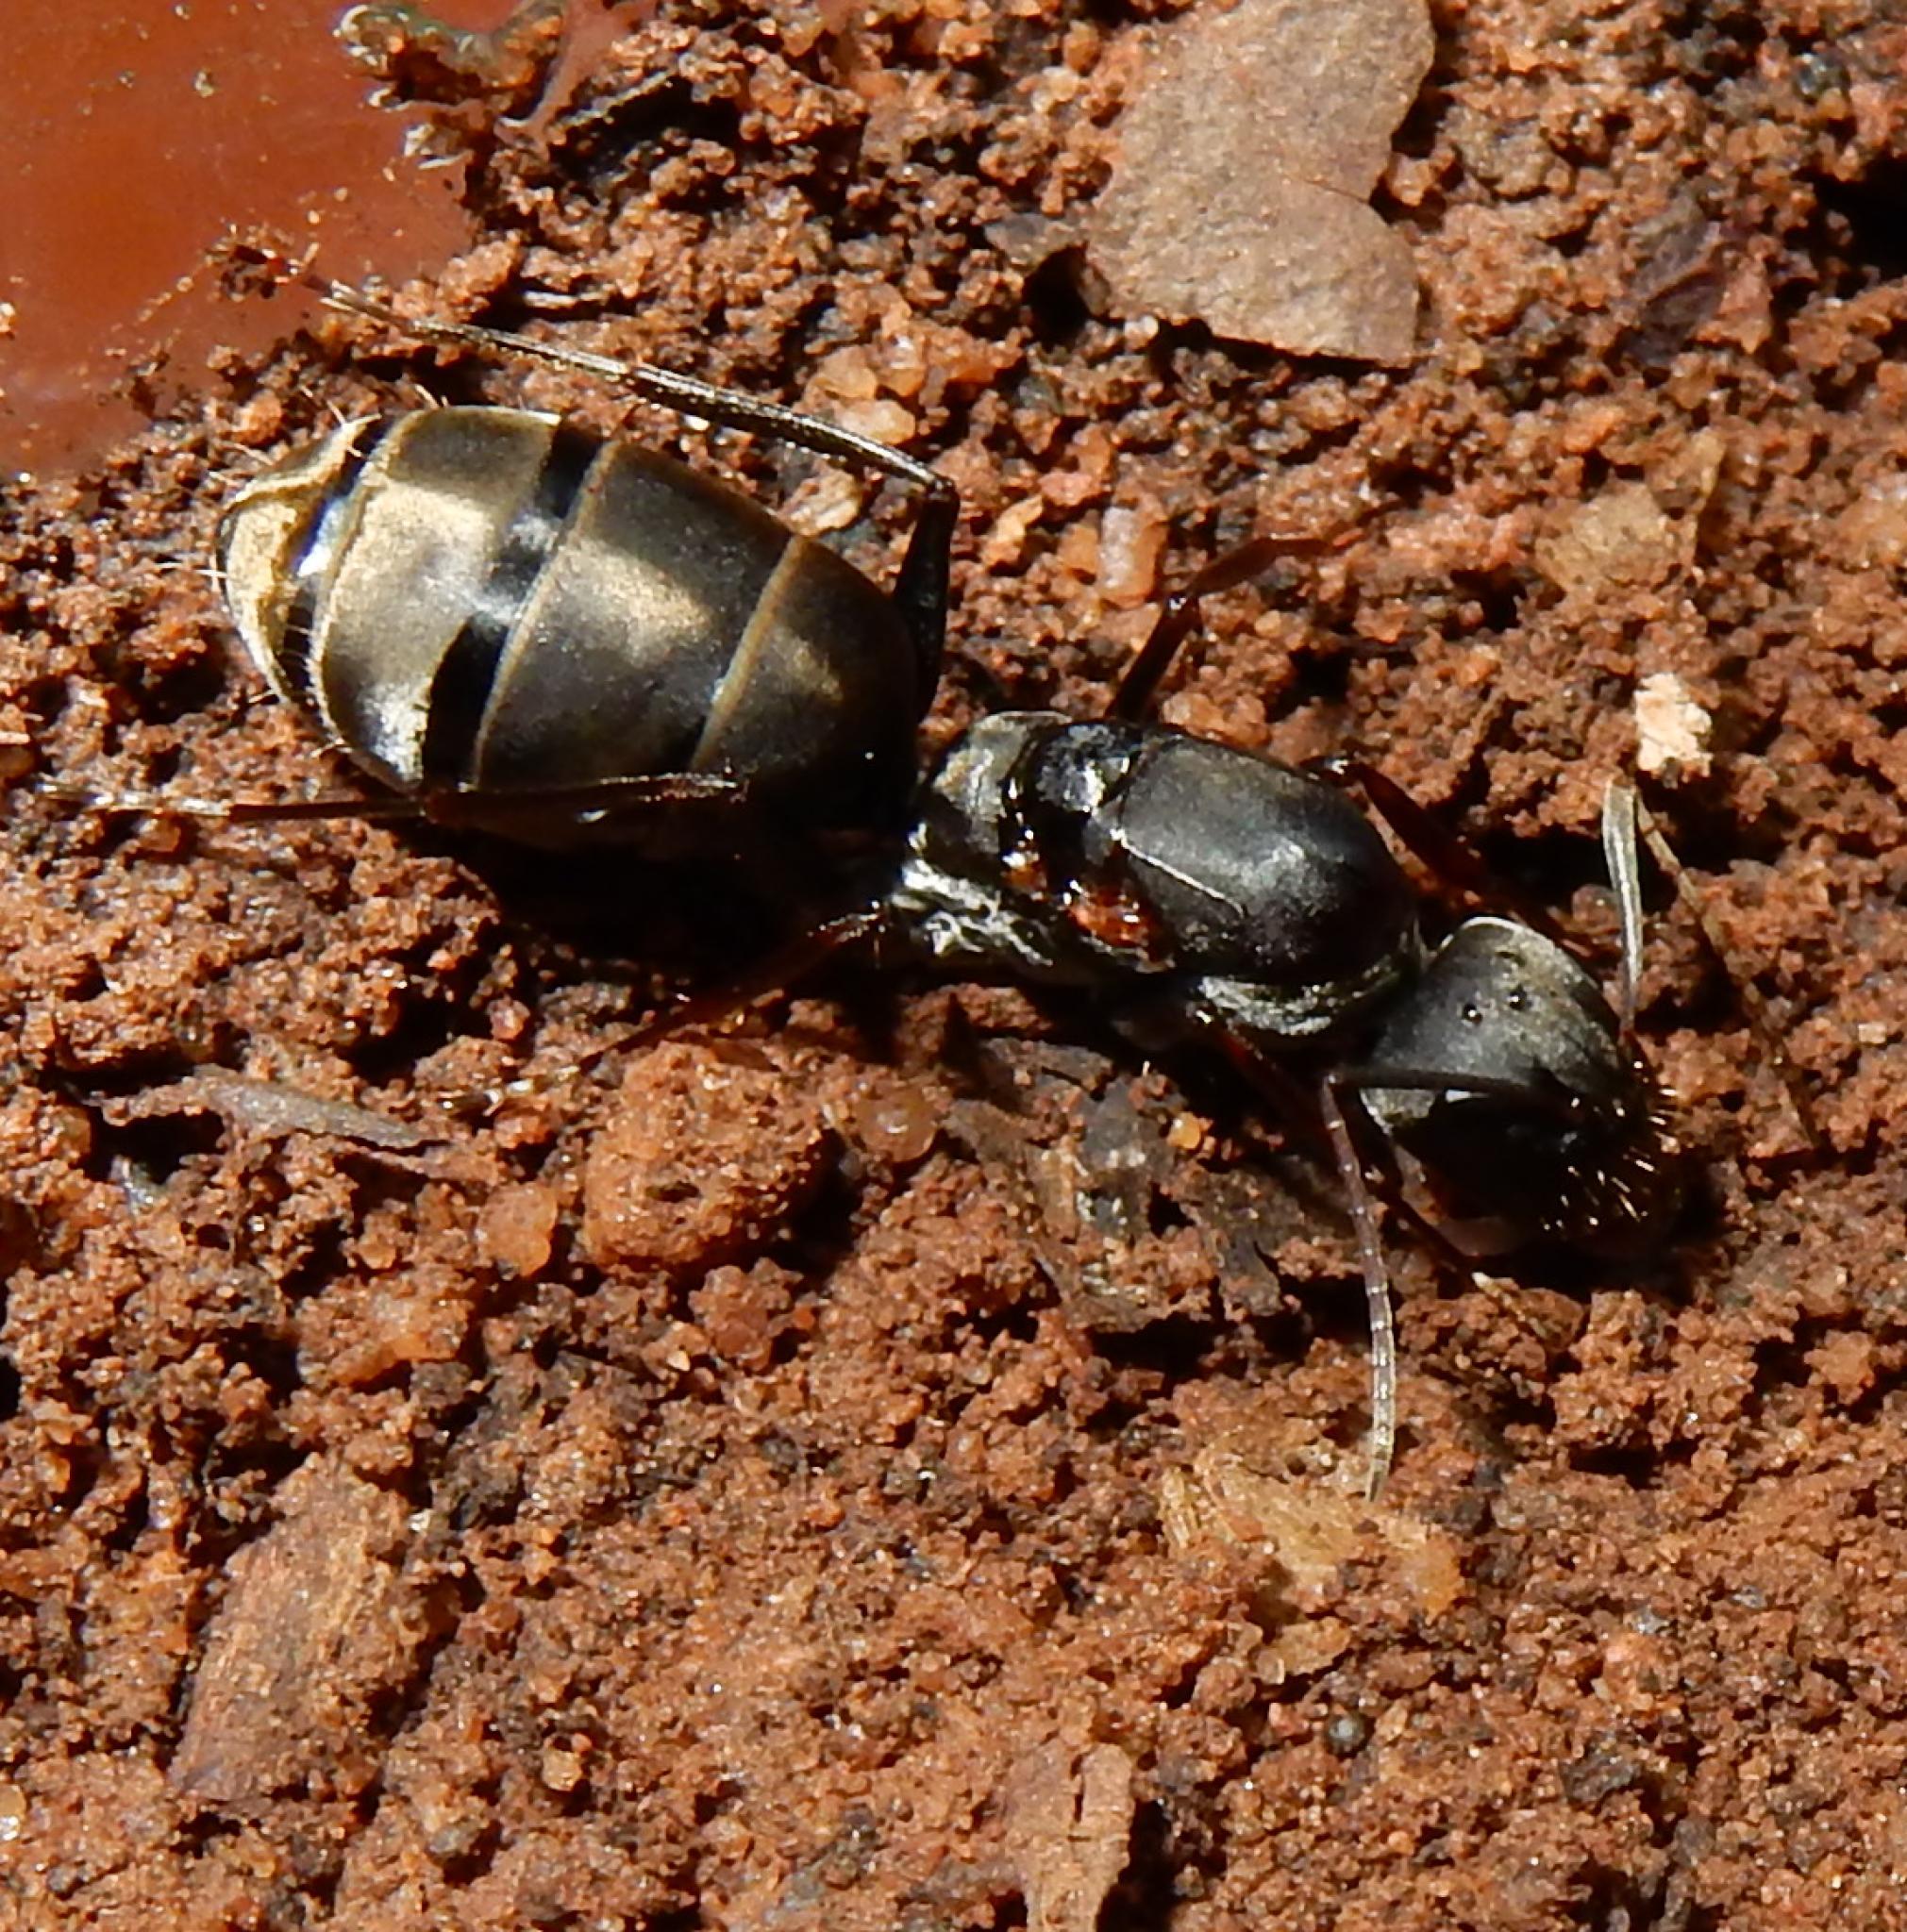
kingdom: Animalia
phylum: Arthropoda
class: Insecta
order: Hymenoptera
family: Formicidae
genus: Camponotus
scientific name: Camponotus cinctellus
